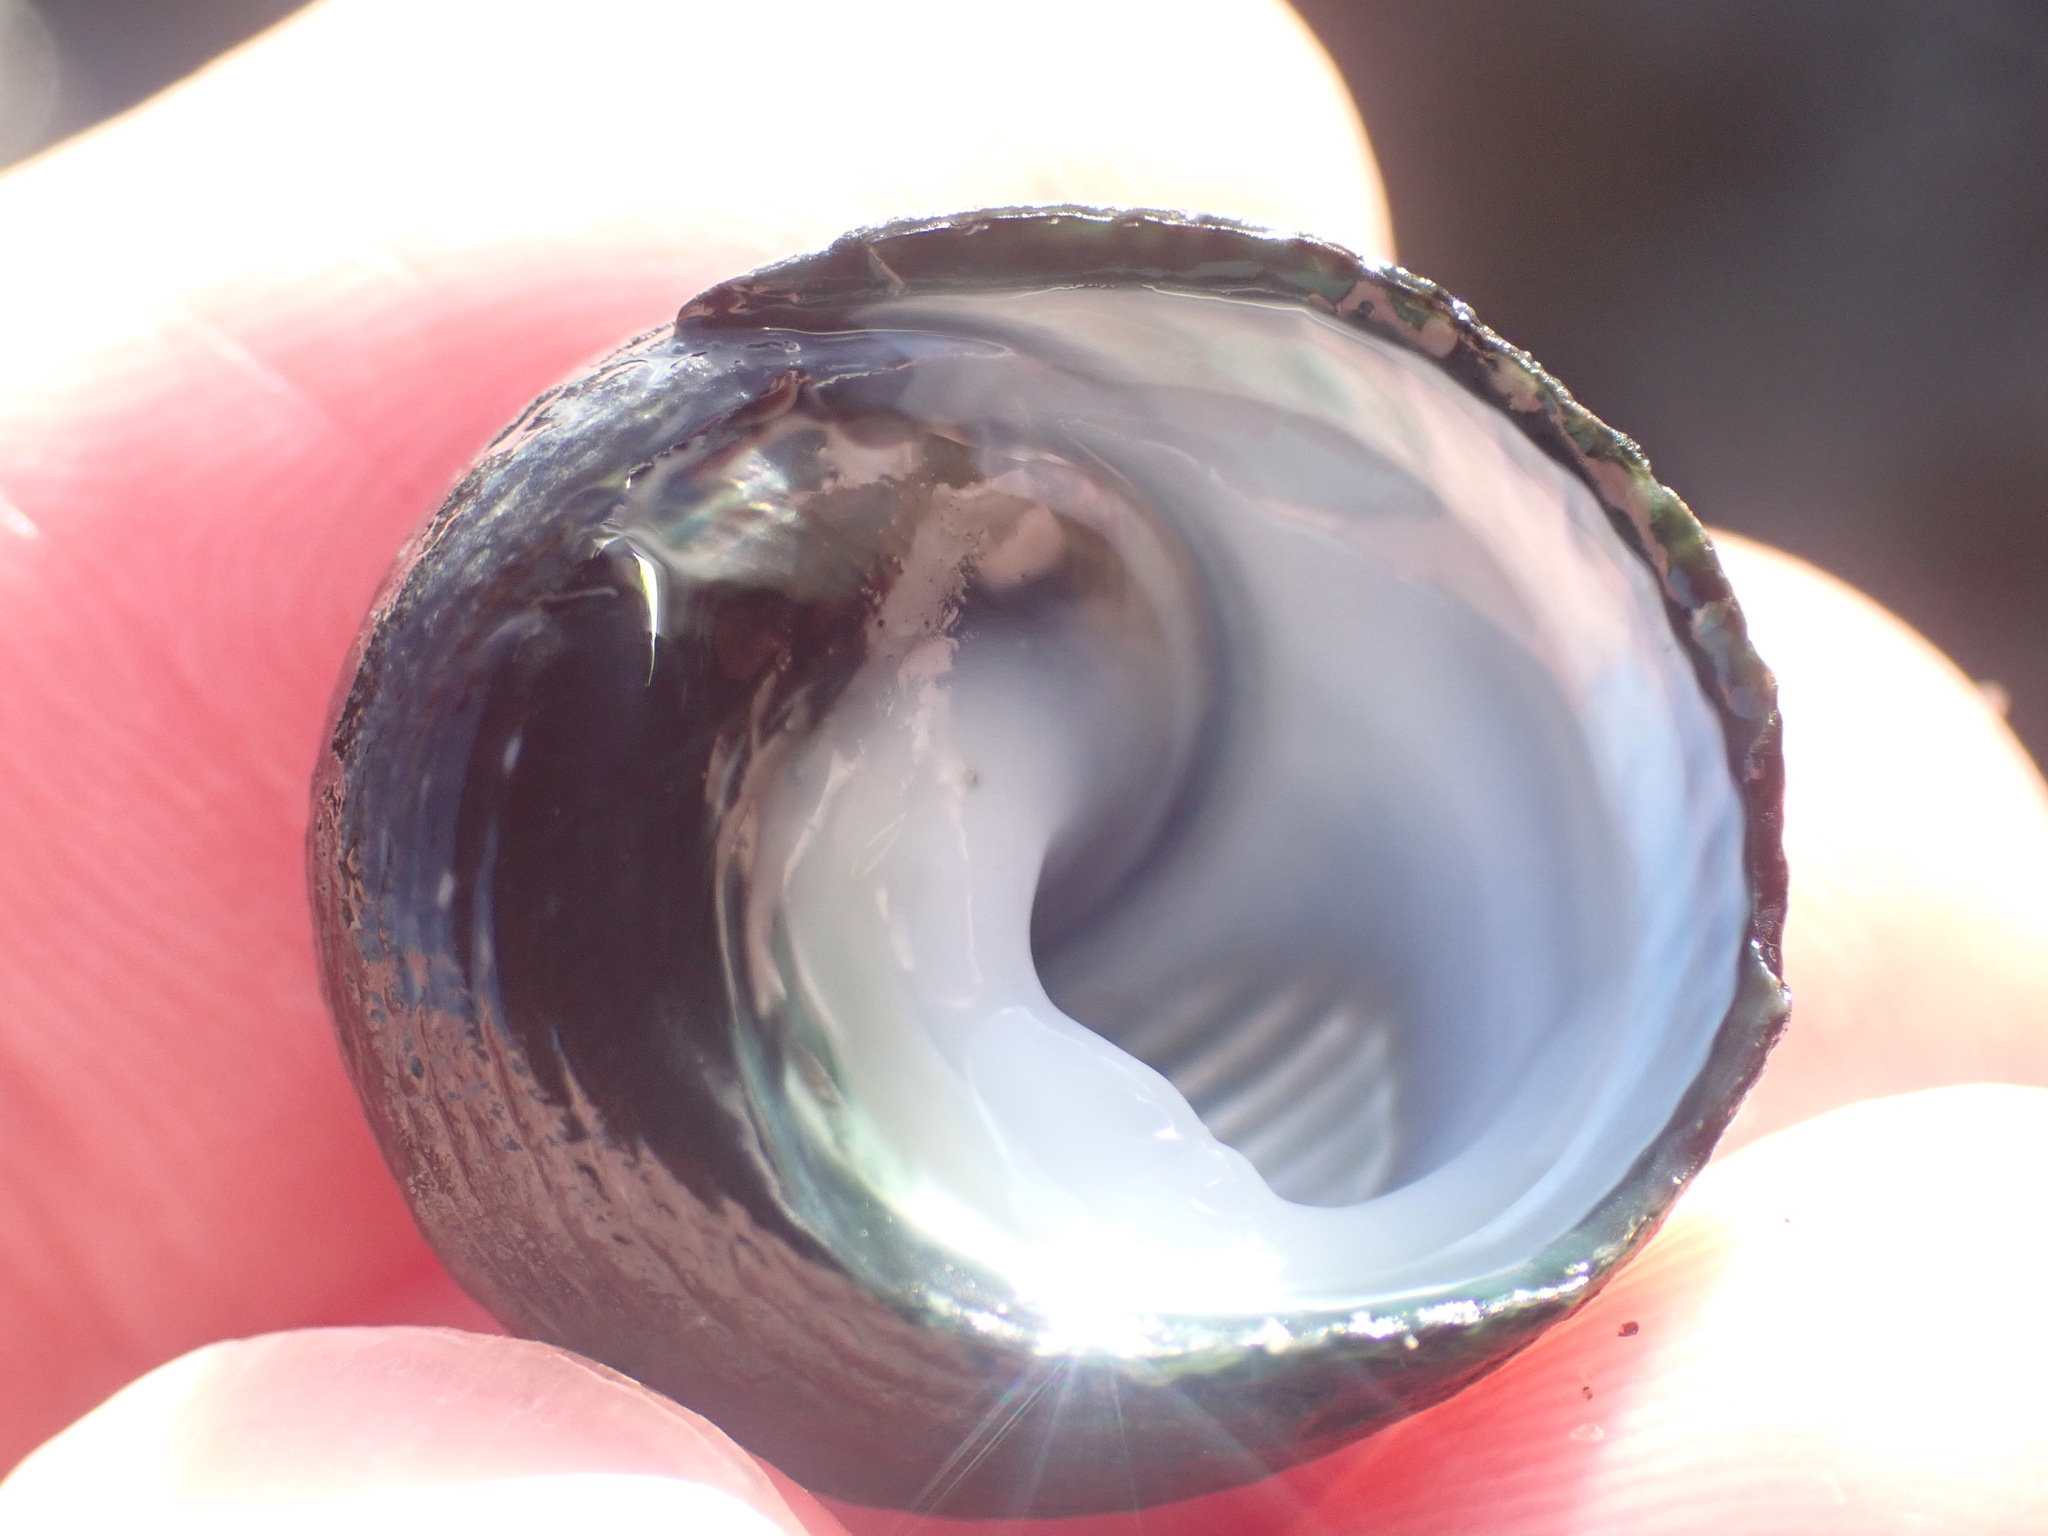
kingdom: Animalia
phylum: Mollusca
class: Gastropoda
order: Trochida
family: Trochidae
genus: Diloma
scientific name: Diloma zelandicum
